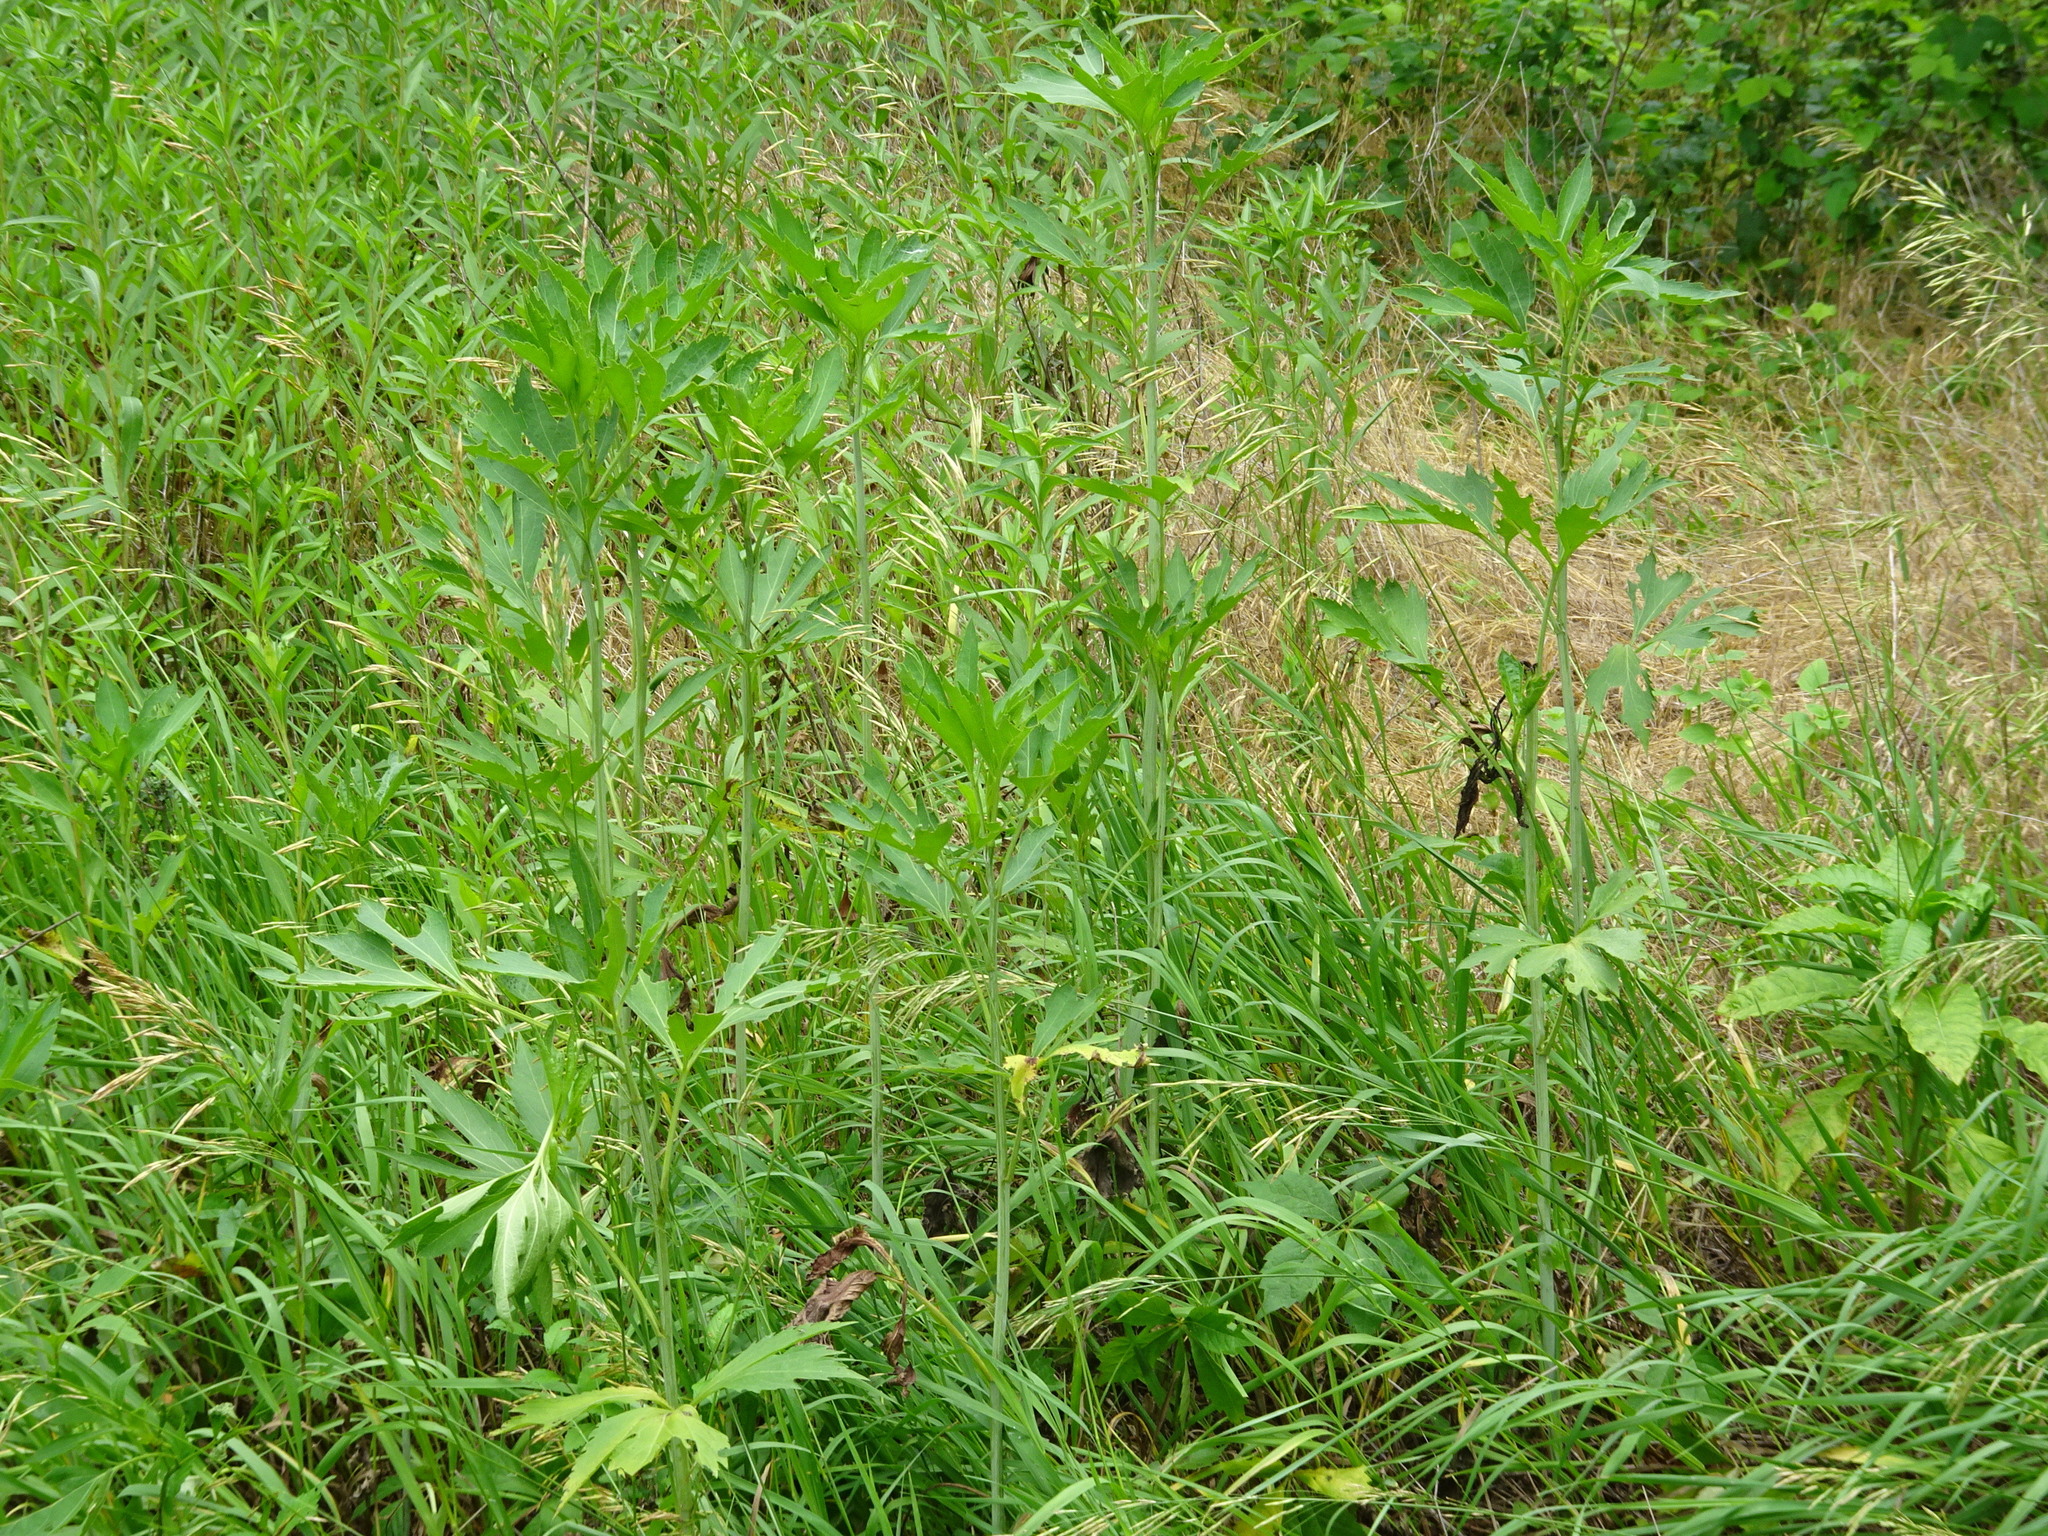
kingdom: Plantae
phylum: Tracheophyta
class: Magnoliopsida
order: Asterales
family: Asteraceae
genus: Rudbeckia
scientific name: Rudbeckia laciniata
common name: Coneflower
